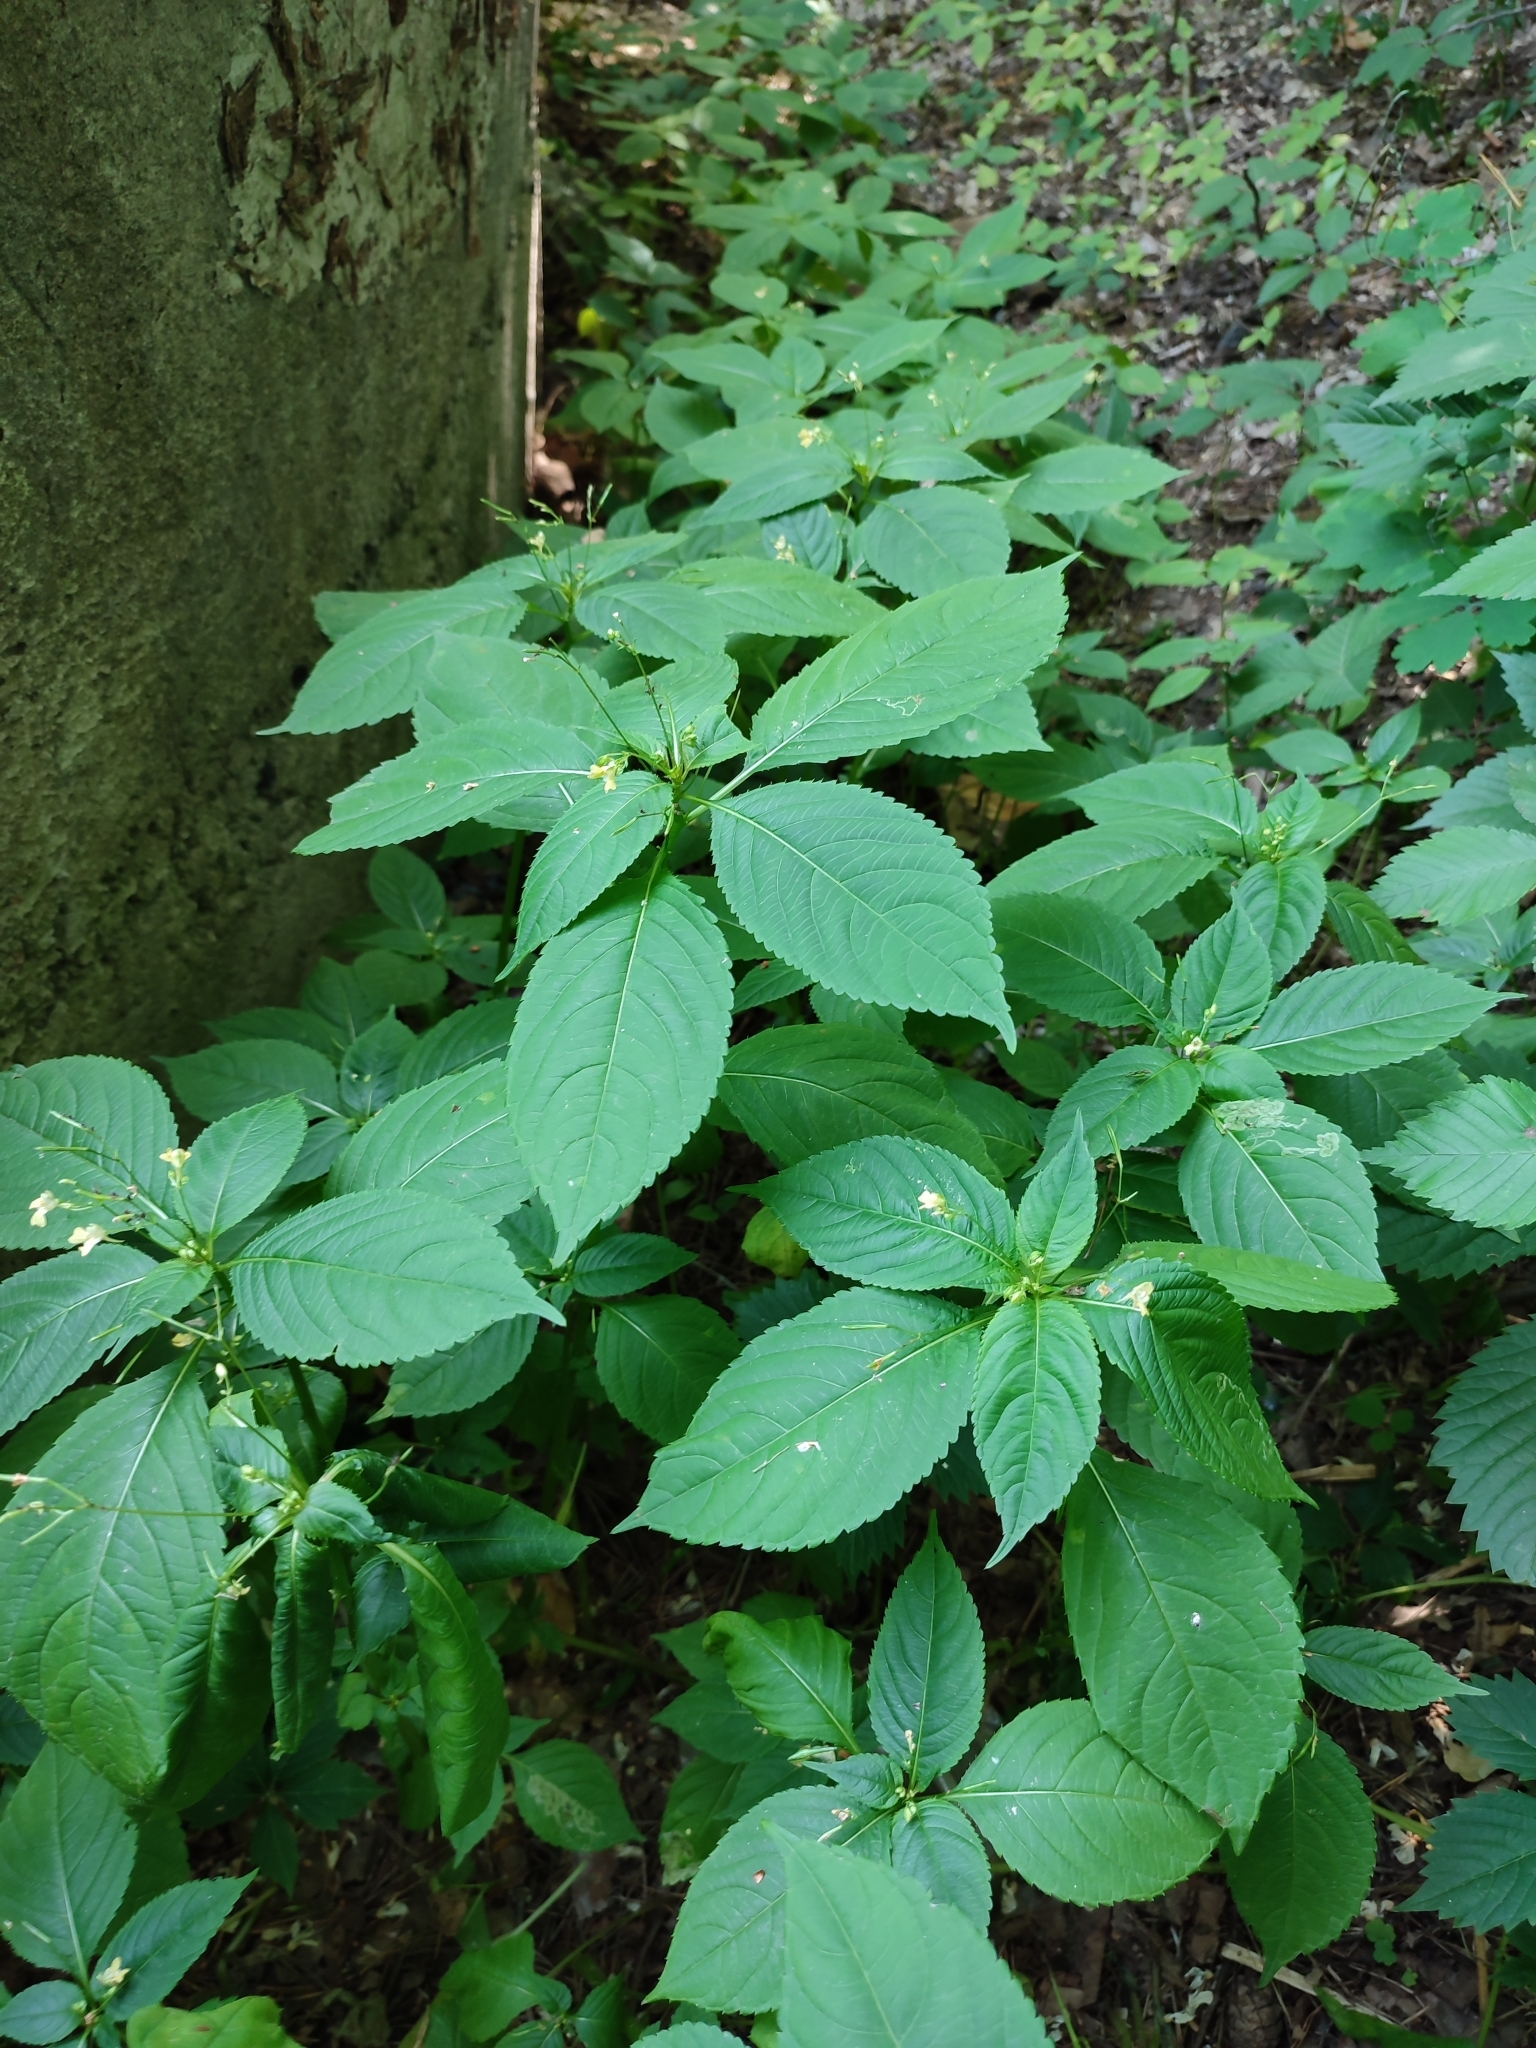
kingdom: Plantae
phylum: Tracheophyta
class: Magnoliopsida
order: Ericales
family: Balsaminaceae
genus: Impatiens
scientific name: Impatiens parviflora
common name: Small balsam
